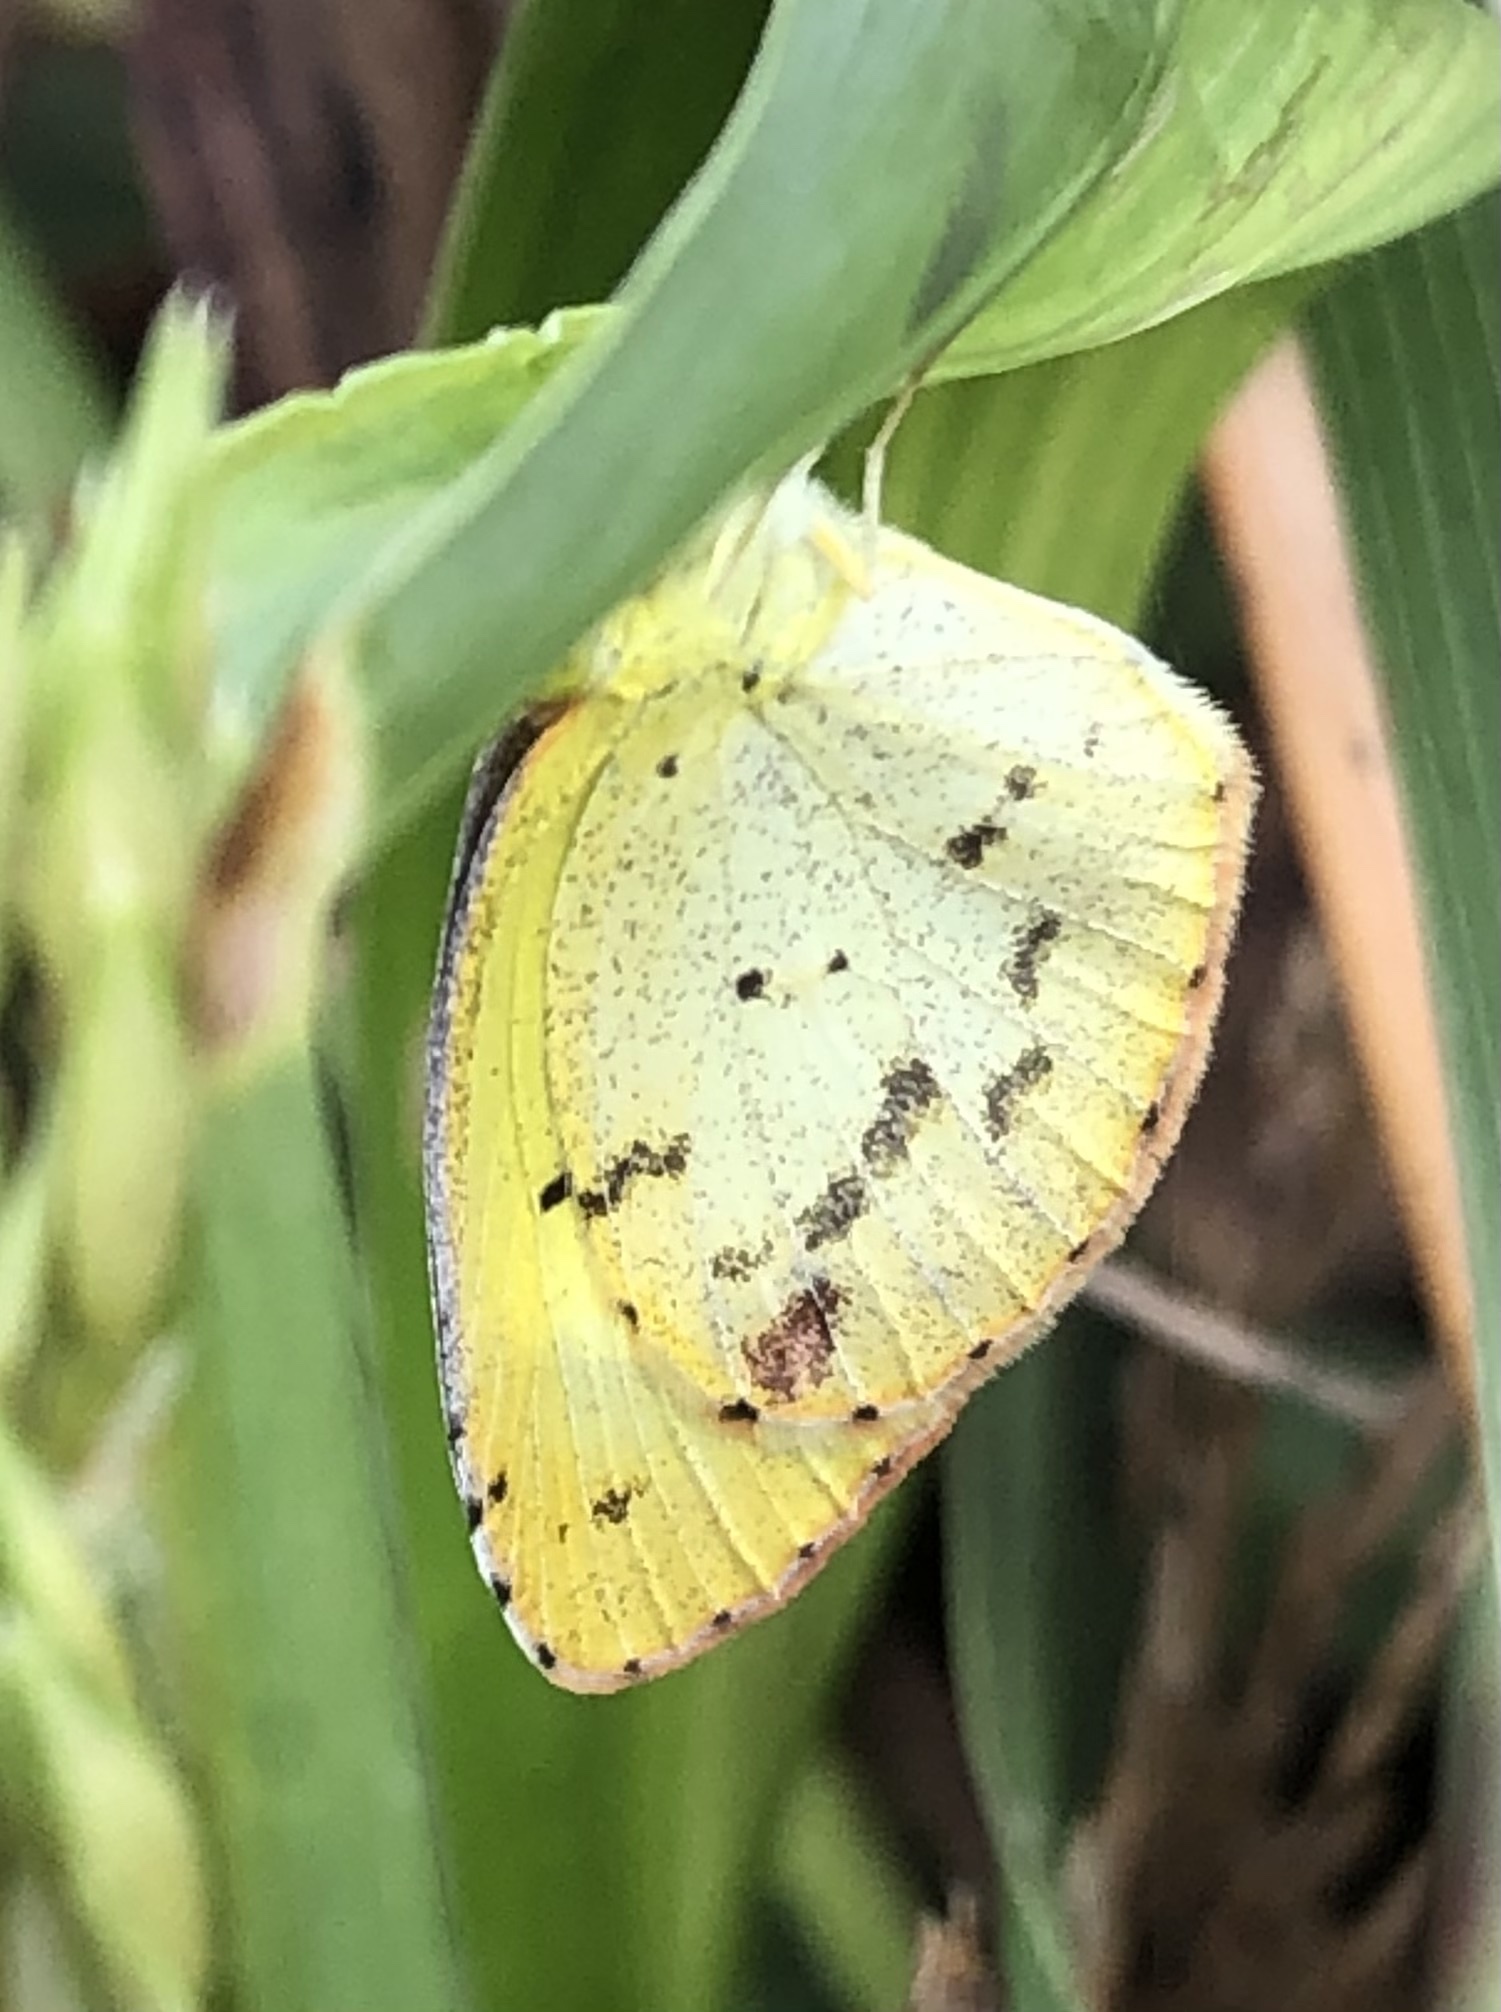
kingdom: Animalia
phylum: Arthropoda
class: Insecta
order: Lepidoptera
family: Pieridae
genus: Pyrisitia
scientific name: Pyrisitia lisa
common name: Little yellow
